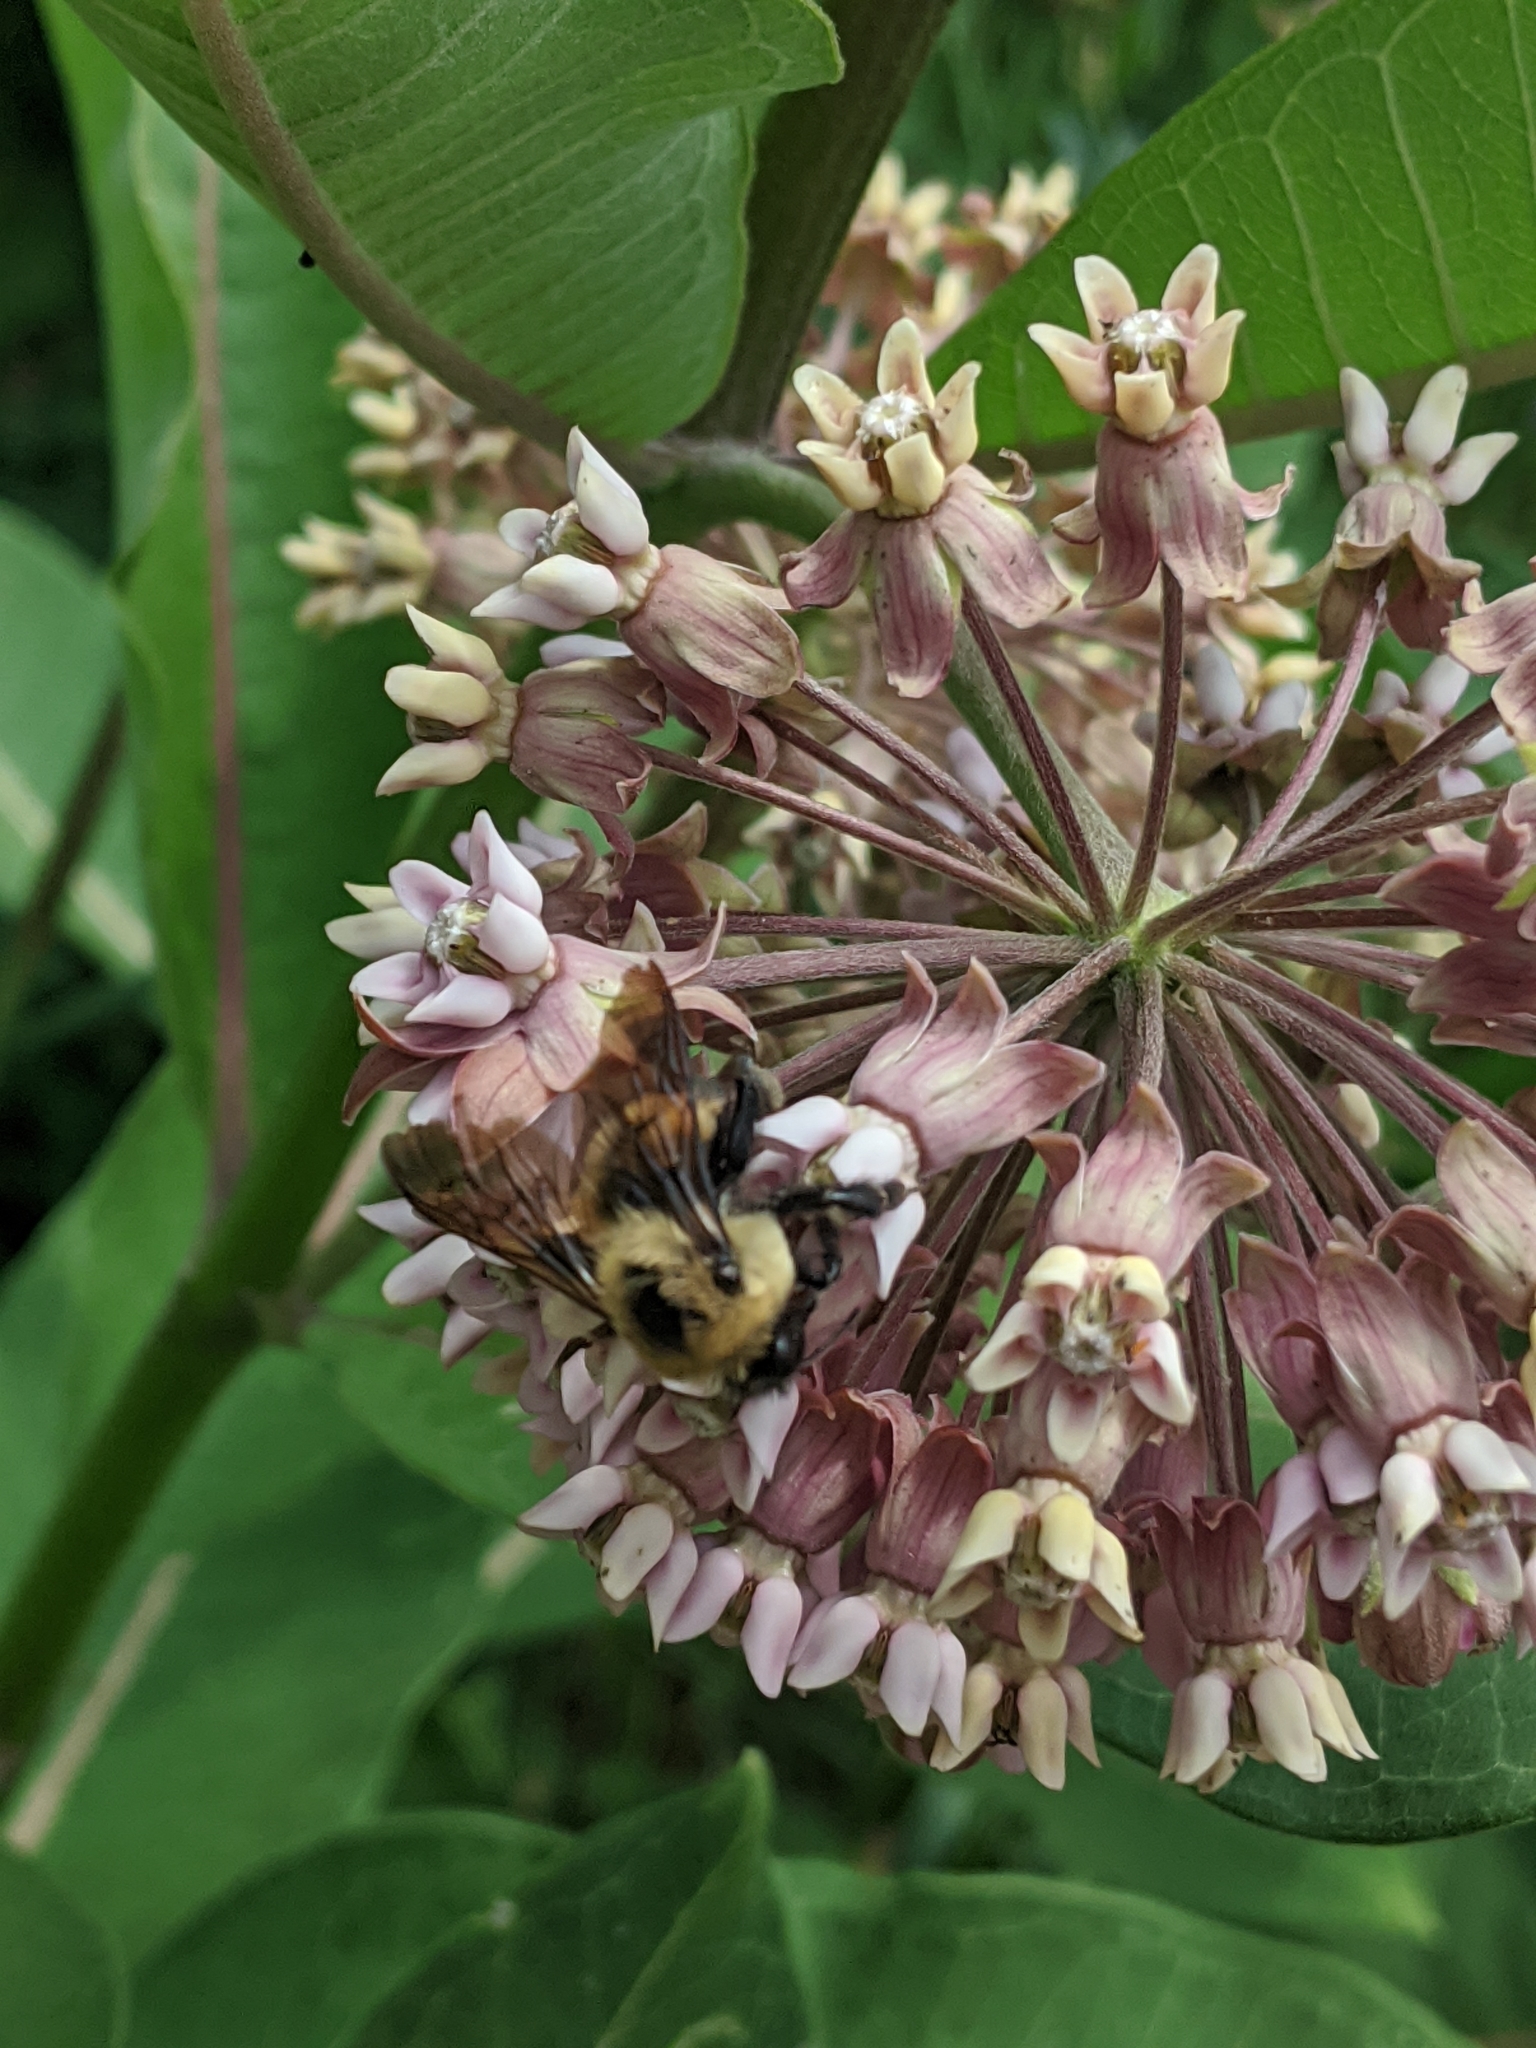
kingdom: Animalia
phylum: Arthropoda
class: Insecta
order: Hymenoptera
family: Apidae
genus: Bombus
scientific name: Bombus griseocollis
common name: Brown-belted bumble bee
